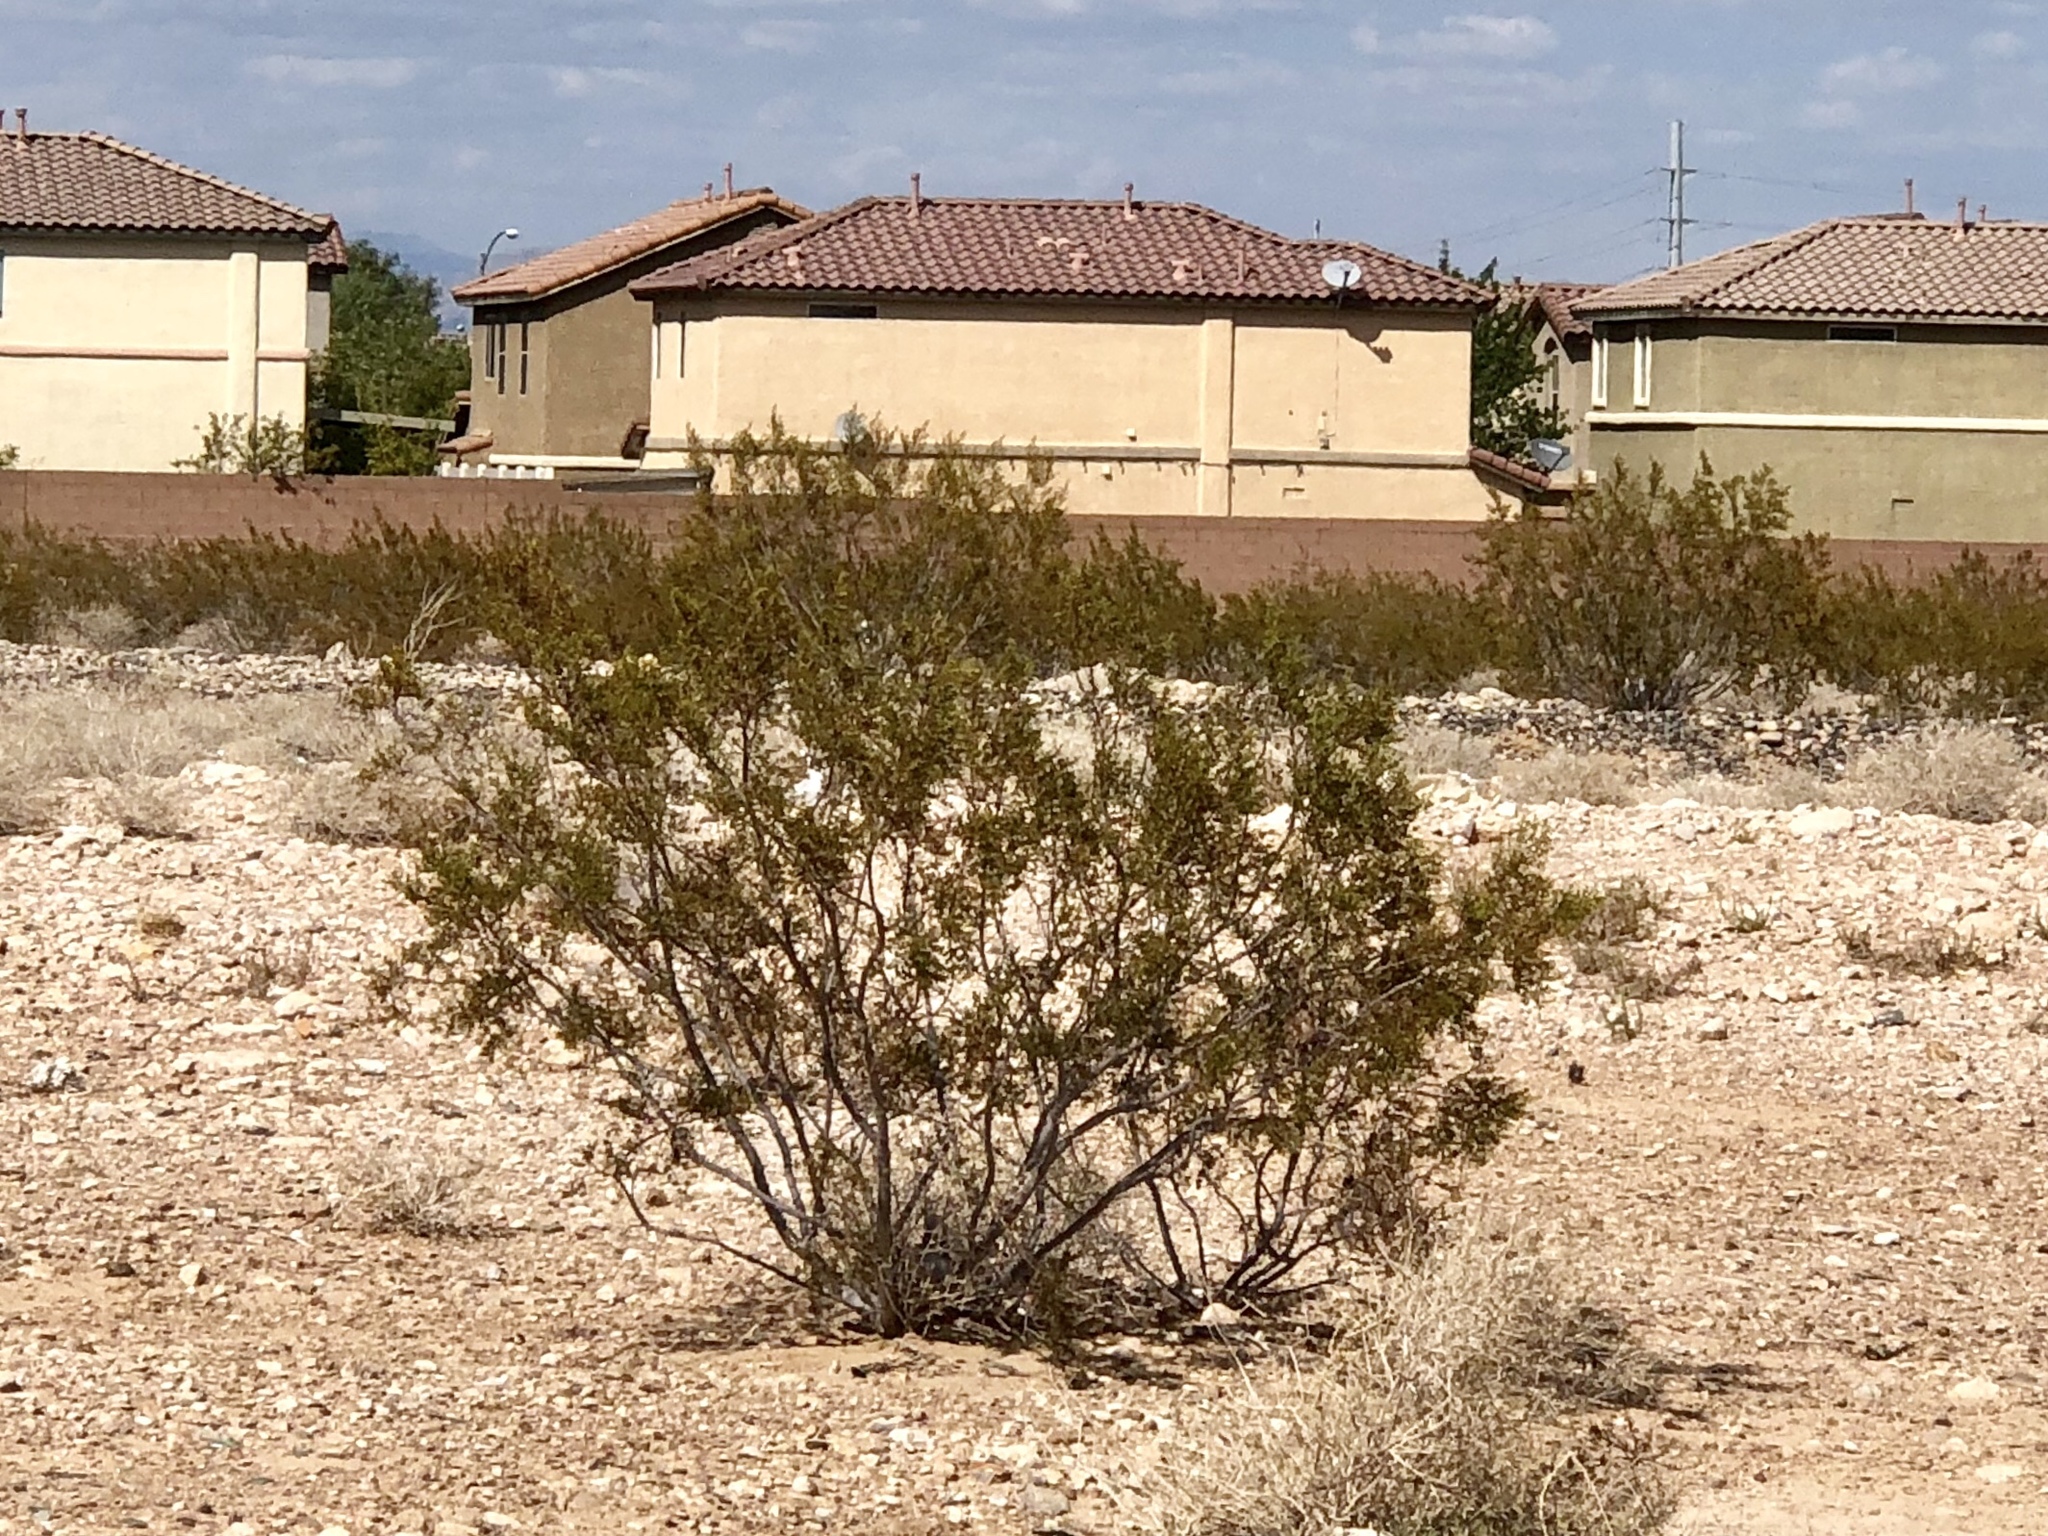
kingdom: Plantae
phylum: Tracheophyta
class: Magnoliopsida
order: Zygophyllales
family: Zygophyllaceae
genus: Larrea
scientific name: Larrea tridentata
